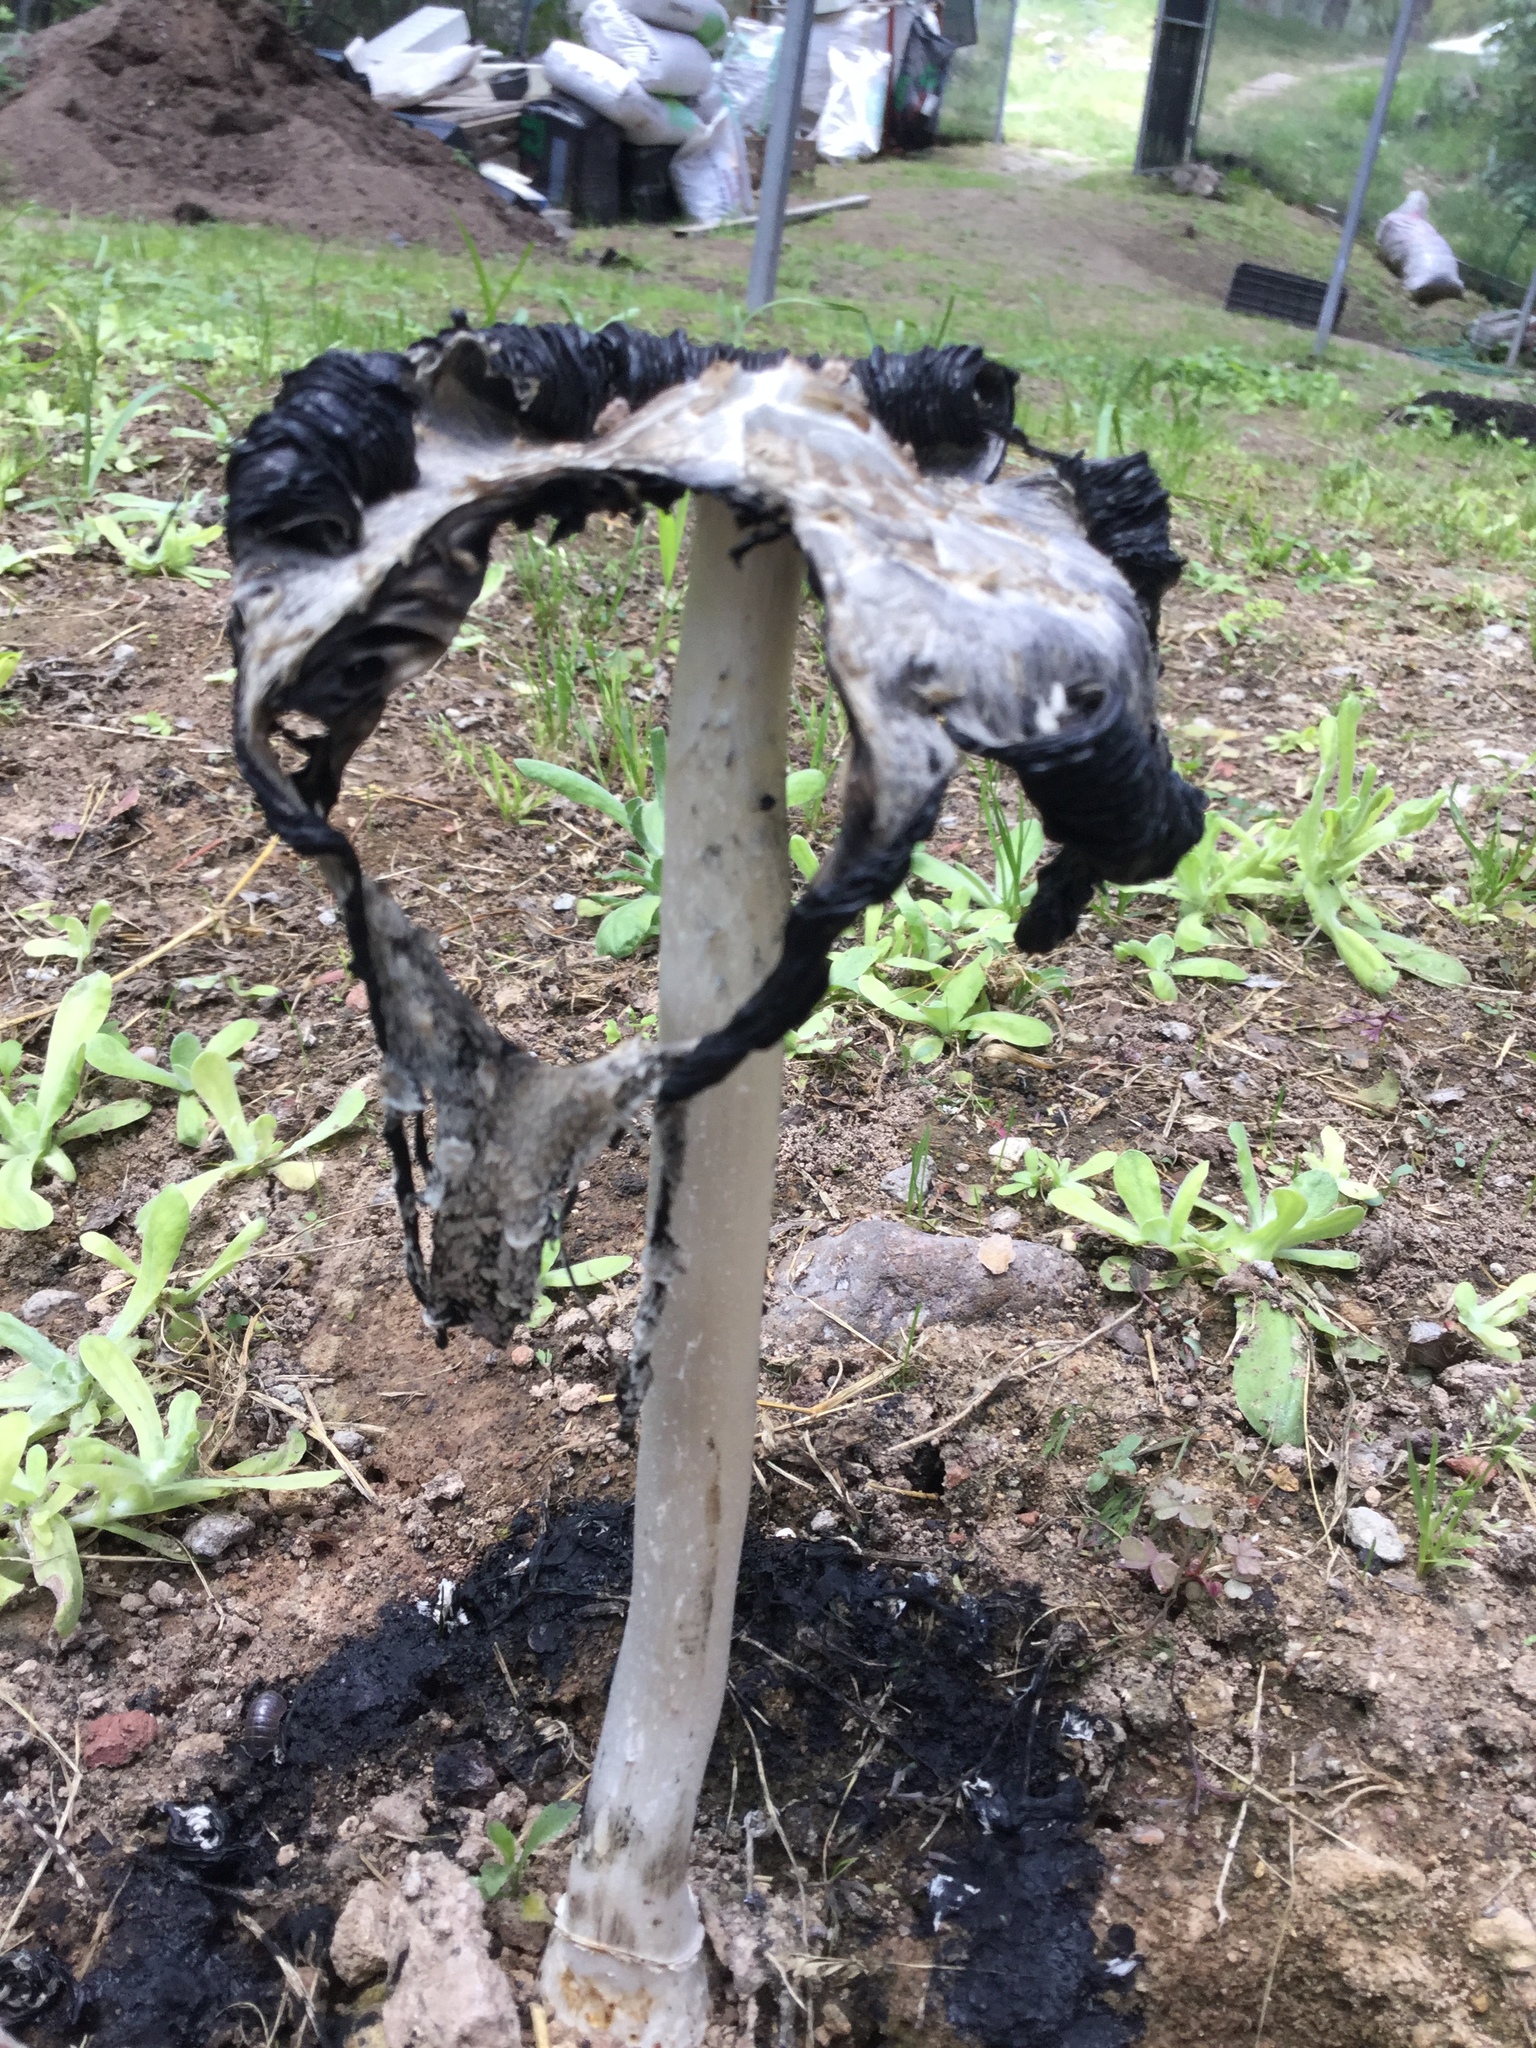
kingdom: Fungi
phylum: Basidiomycota
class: Agaricomycetes
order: Agaricales
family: Agaricaceae
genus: Coprinus
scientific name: Coprinus comatus
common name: Lawyer's wig
